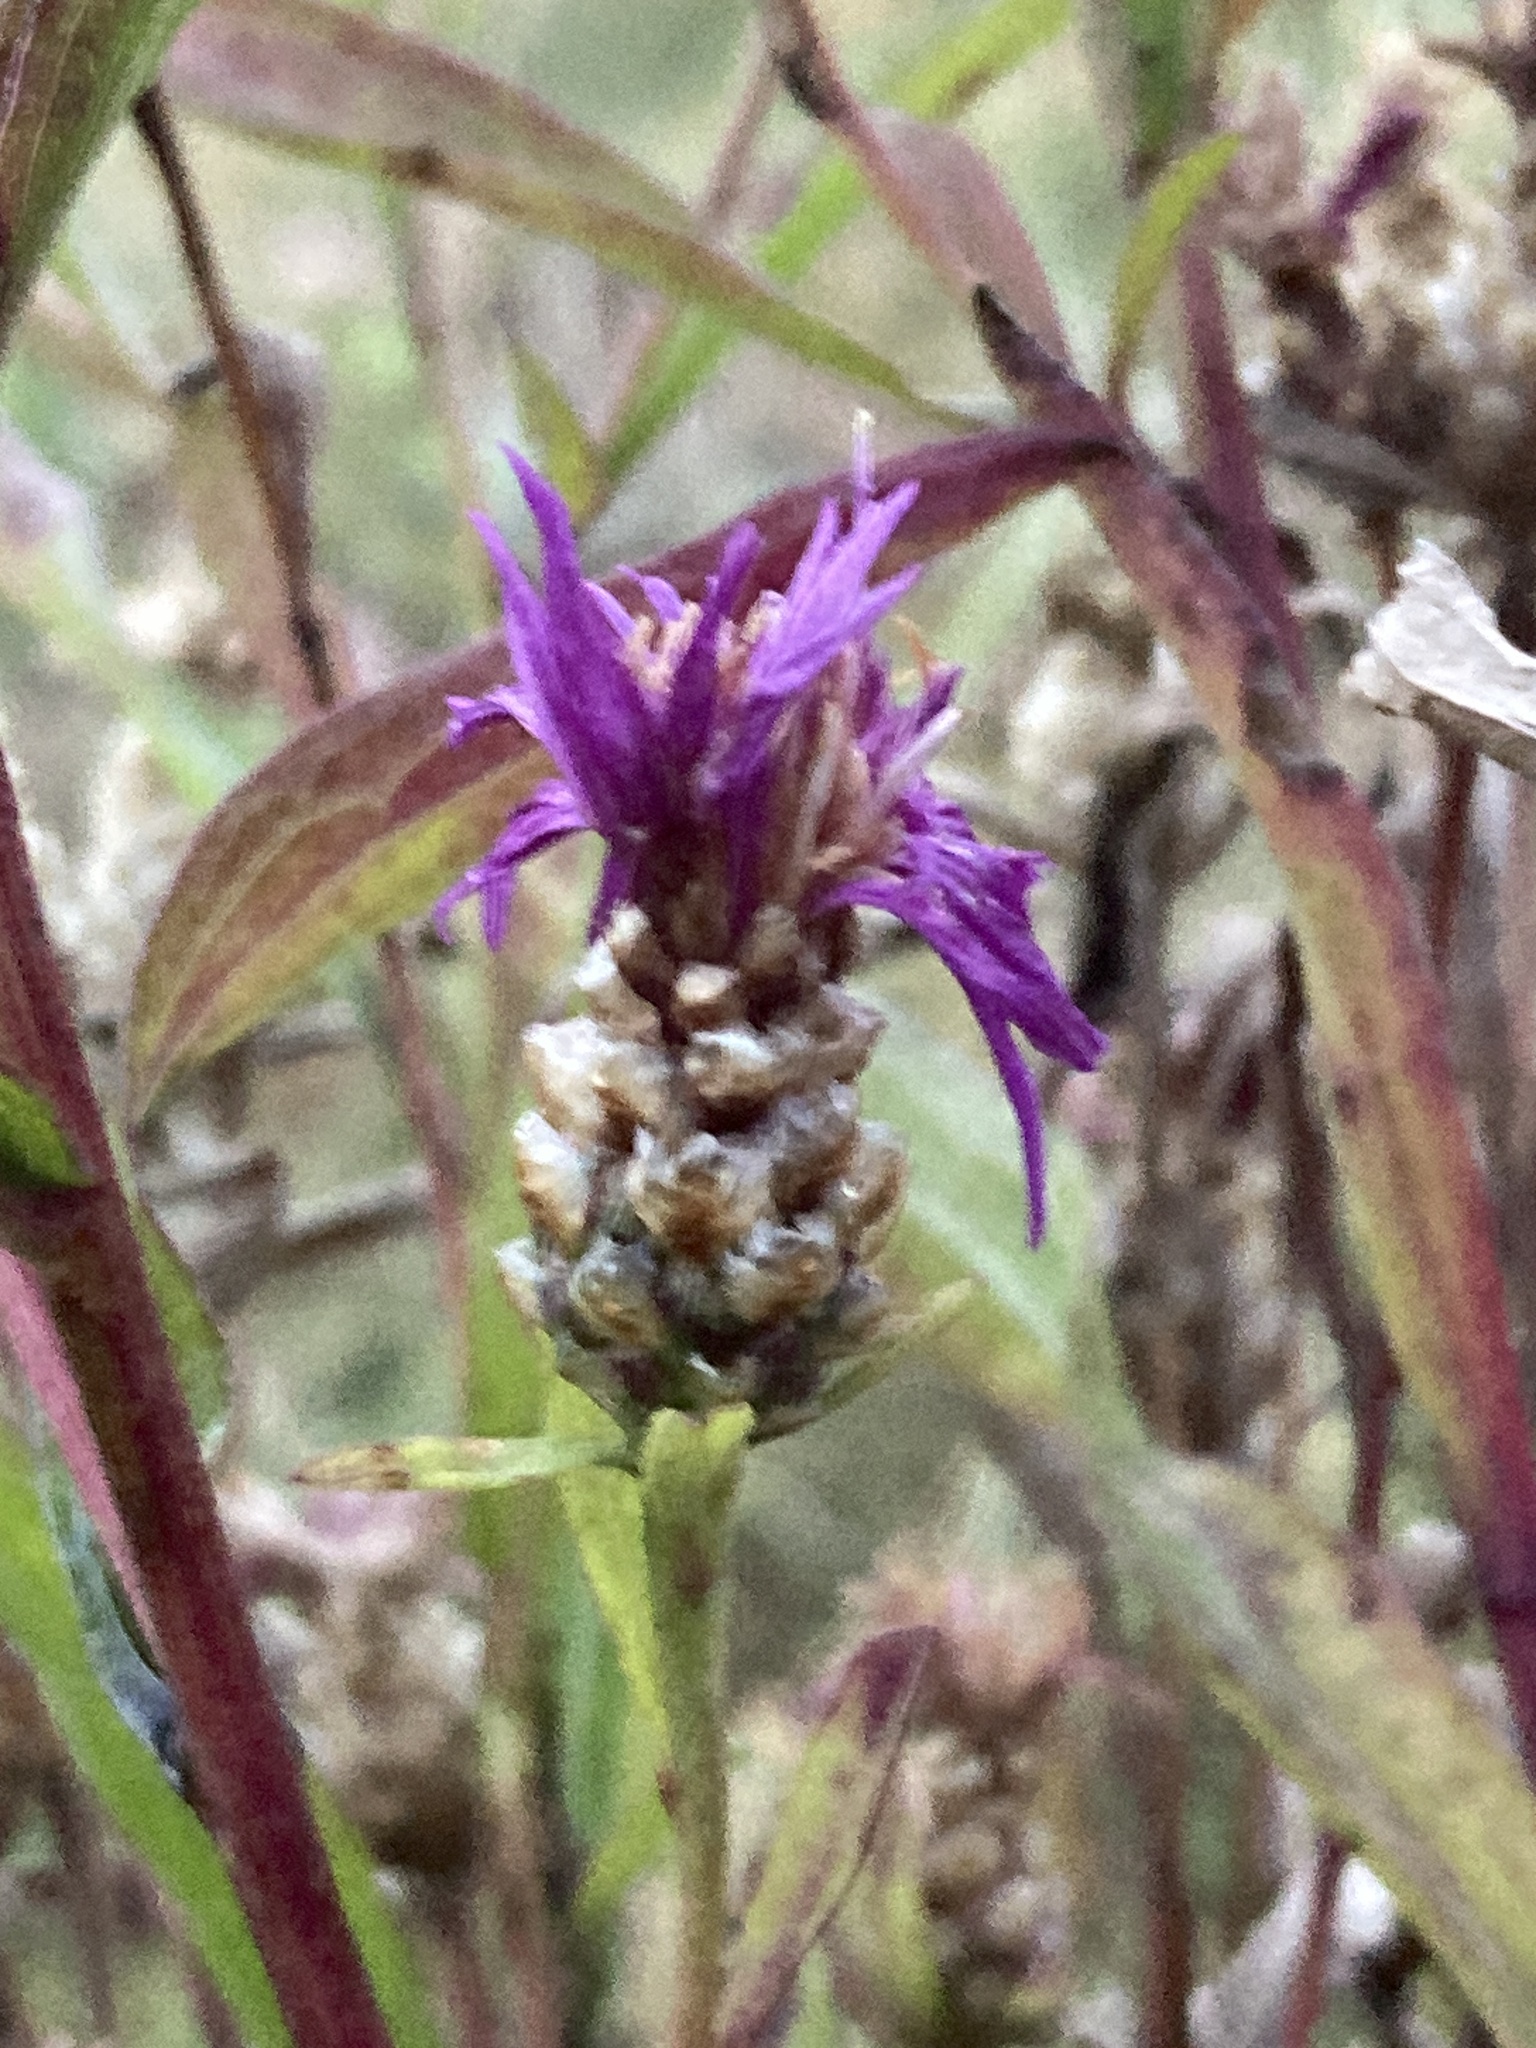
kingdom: Plantae
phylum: Tracheophyta
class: Magnoliopsida
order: Asterales
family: Asteraceae
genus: Centaurea
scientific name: Centaurea jacea
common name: Brown knapweed
